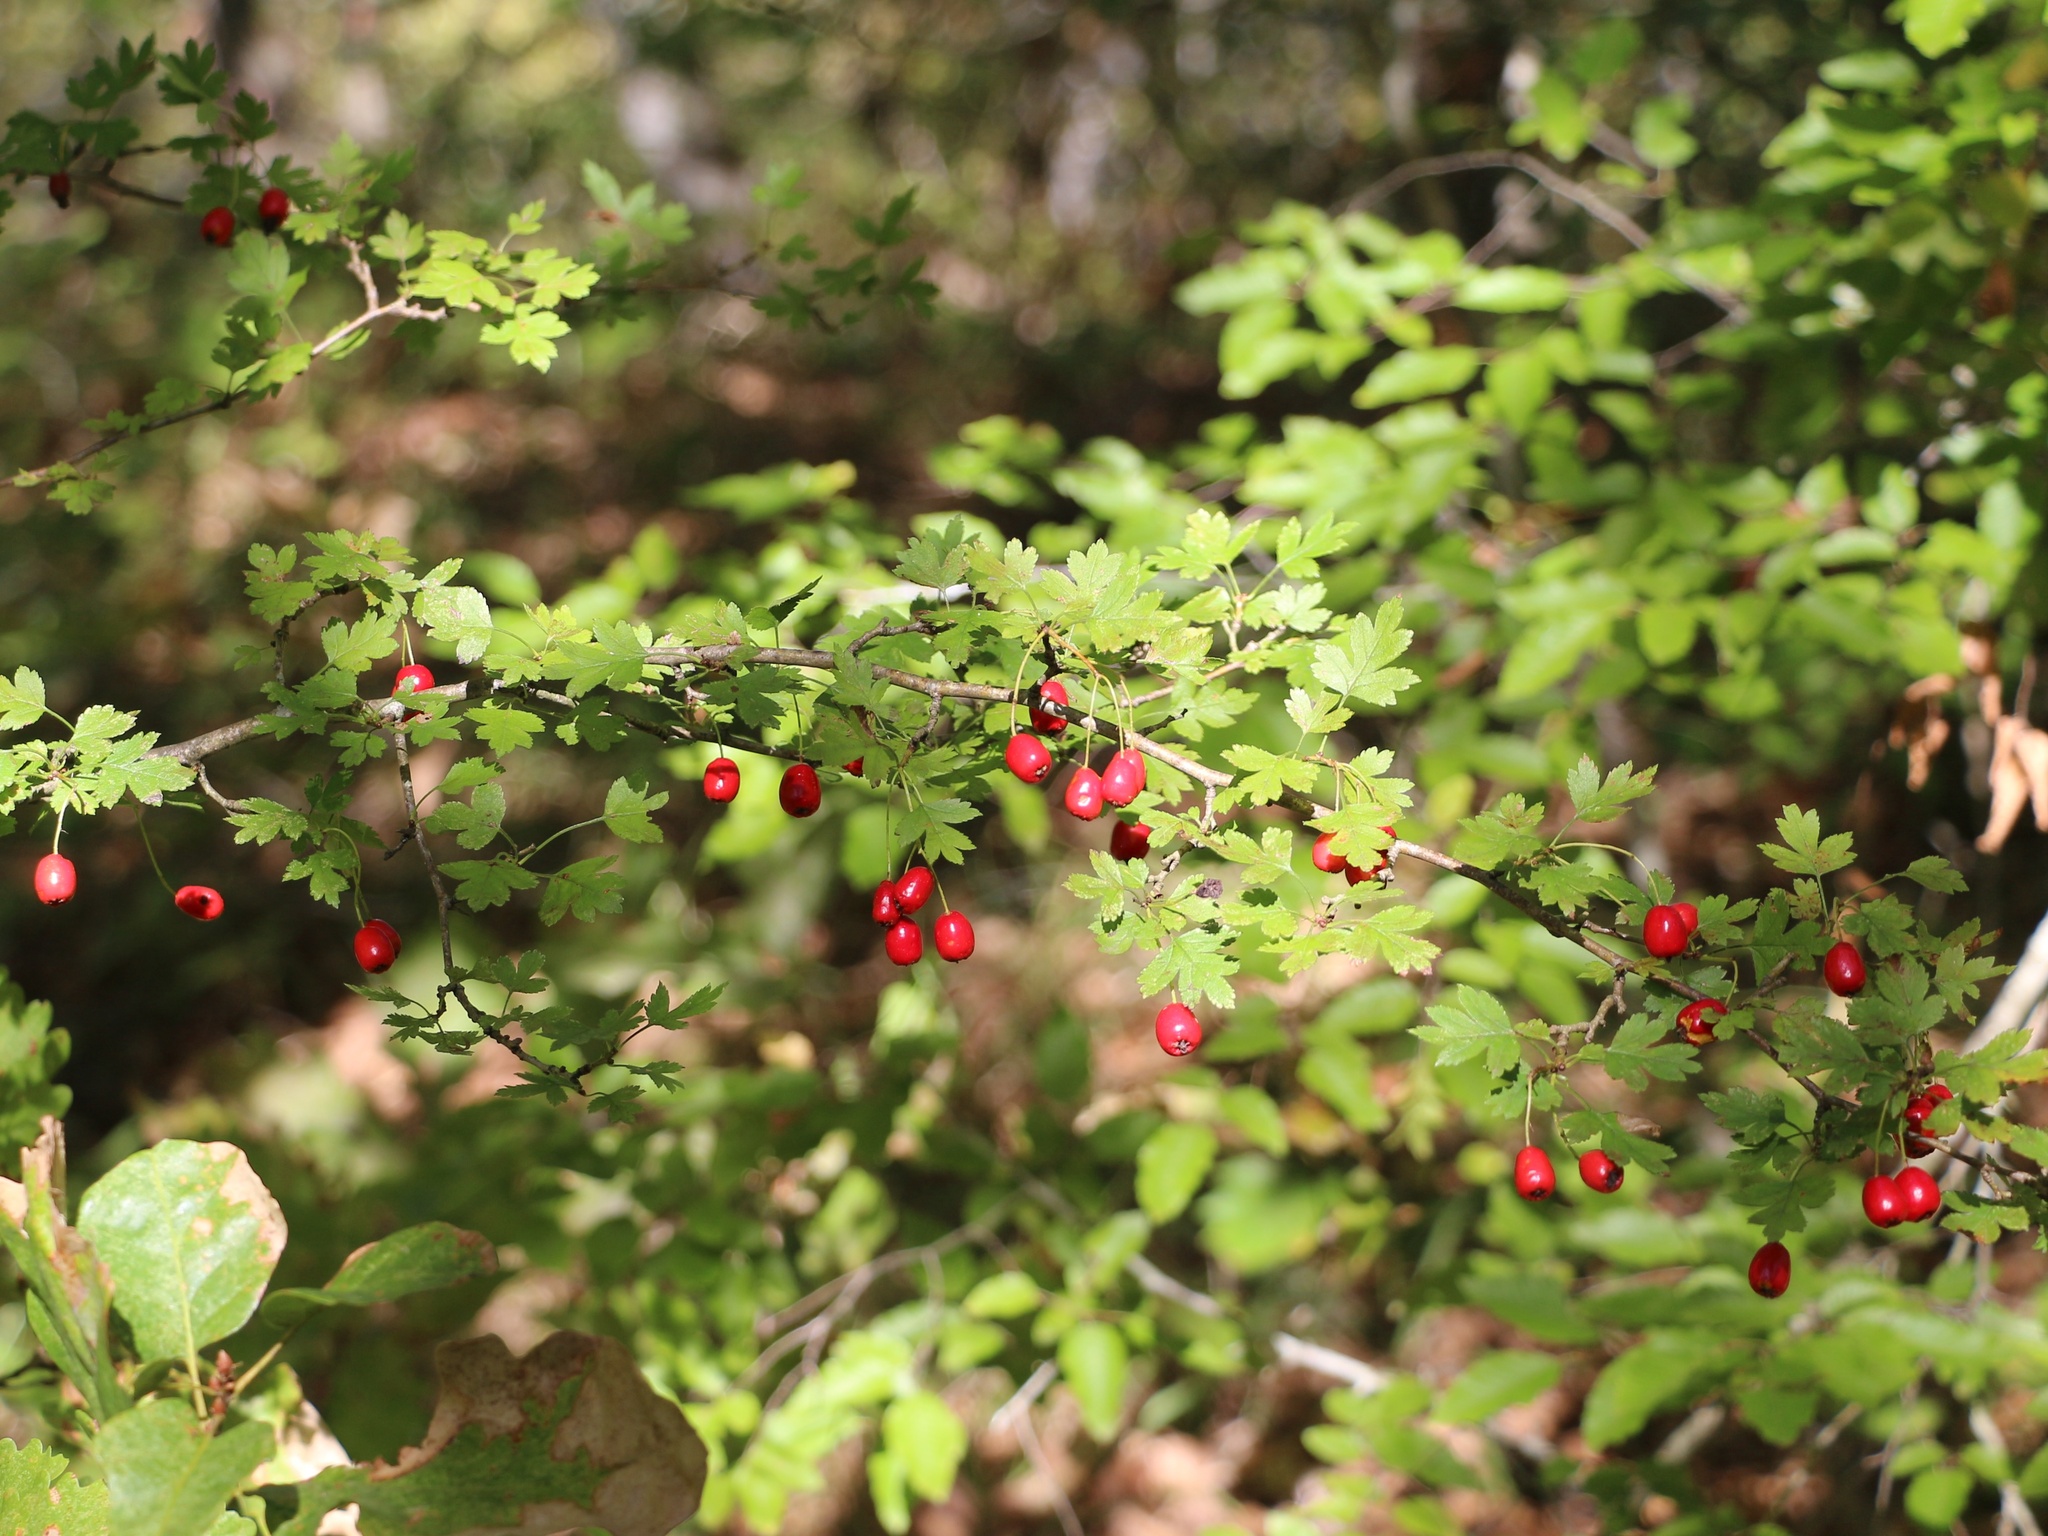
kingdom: Plantae
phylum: Tracheophyta
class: Magnoliopsida
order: Rosales
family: Rosaceae
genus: Crataegus
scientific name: Crataegus monogyna
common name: Hawthorn
